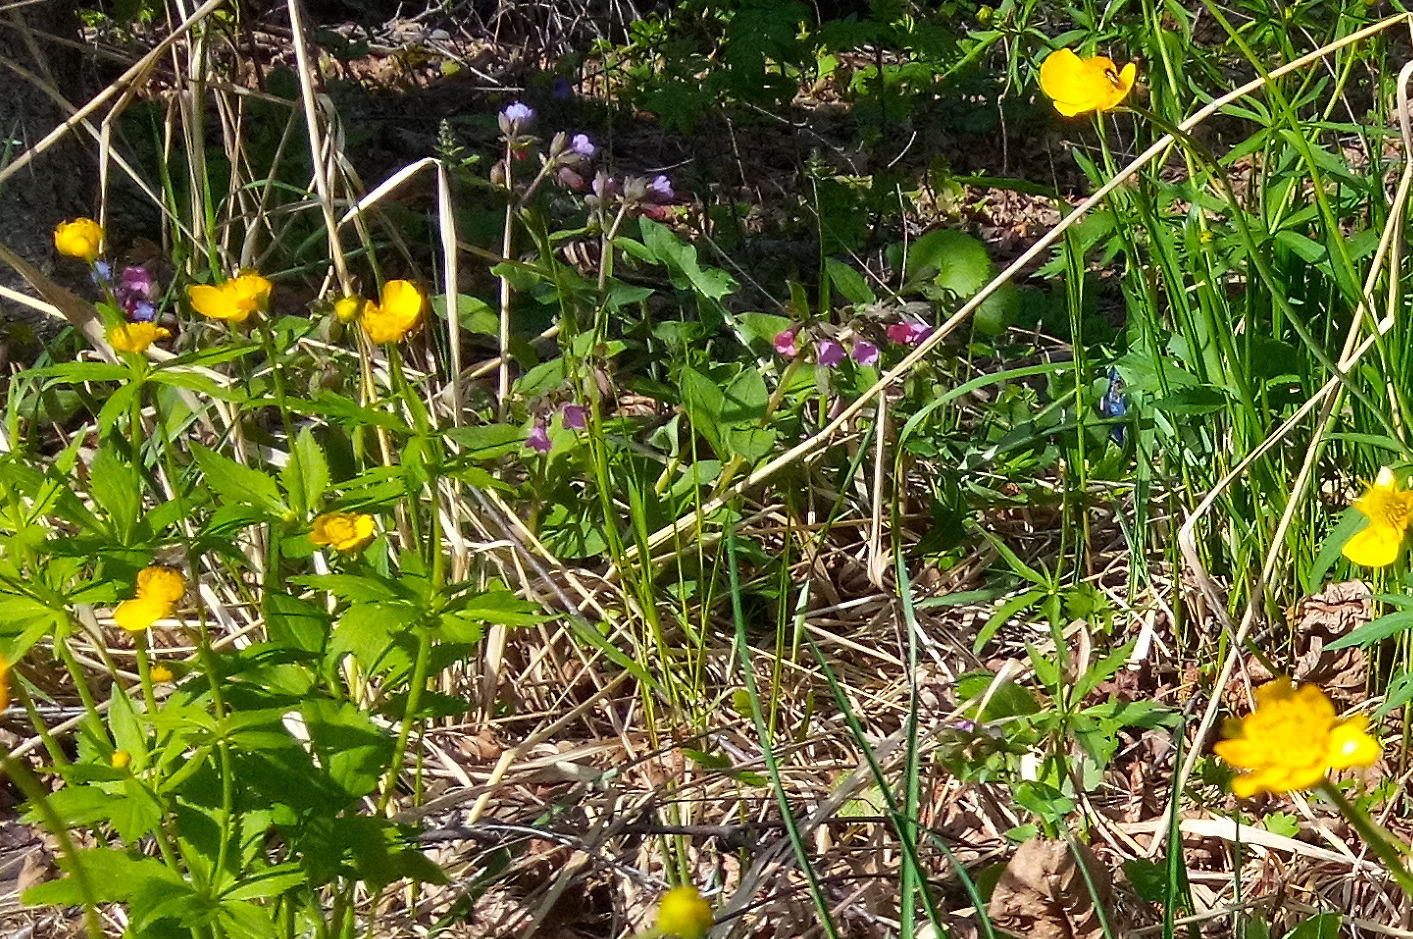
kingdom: Plantae
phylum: Tracheophyta
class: Magnoliopsida
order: Ranunculales
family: Ranunculaceae
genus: Ranunculus
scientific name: Ranunculus cassubicus
